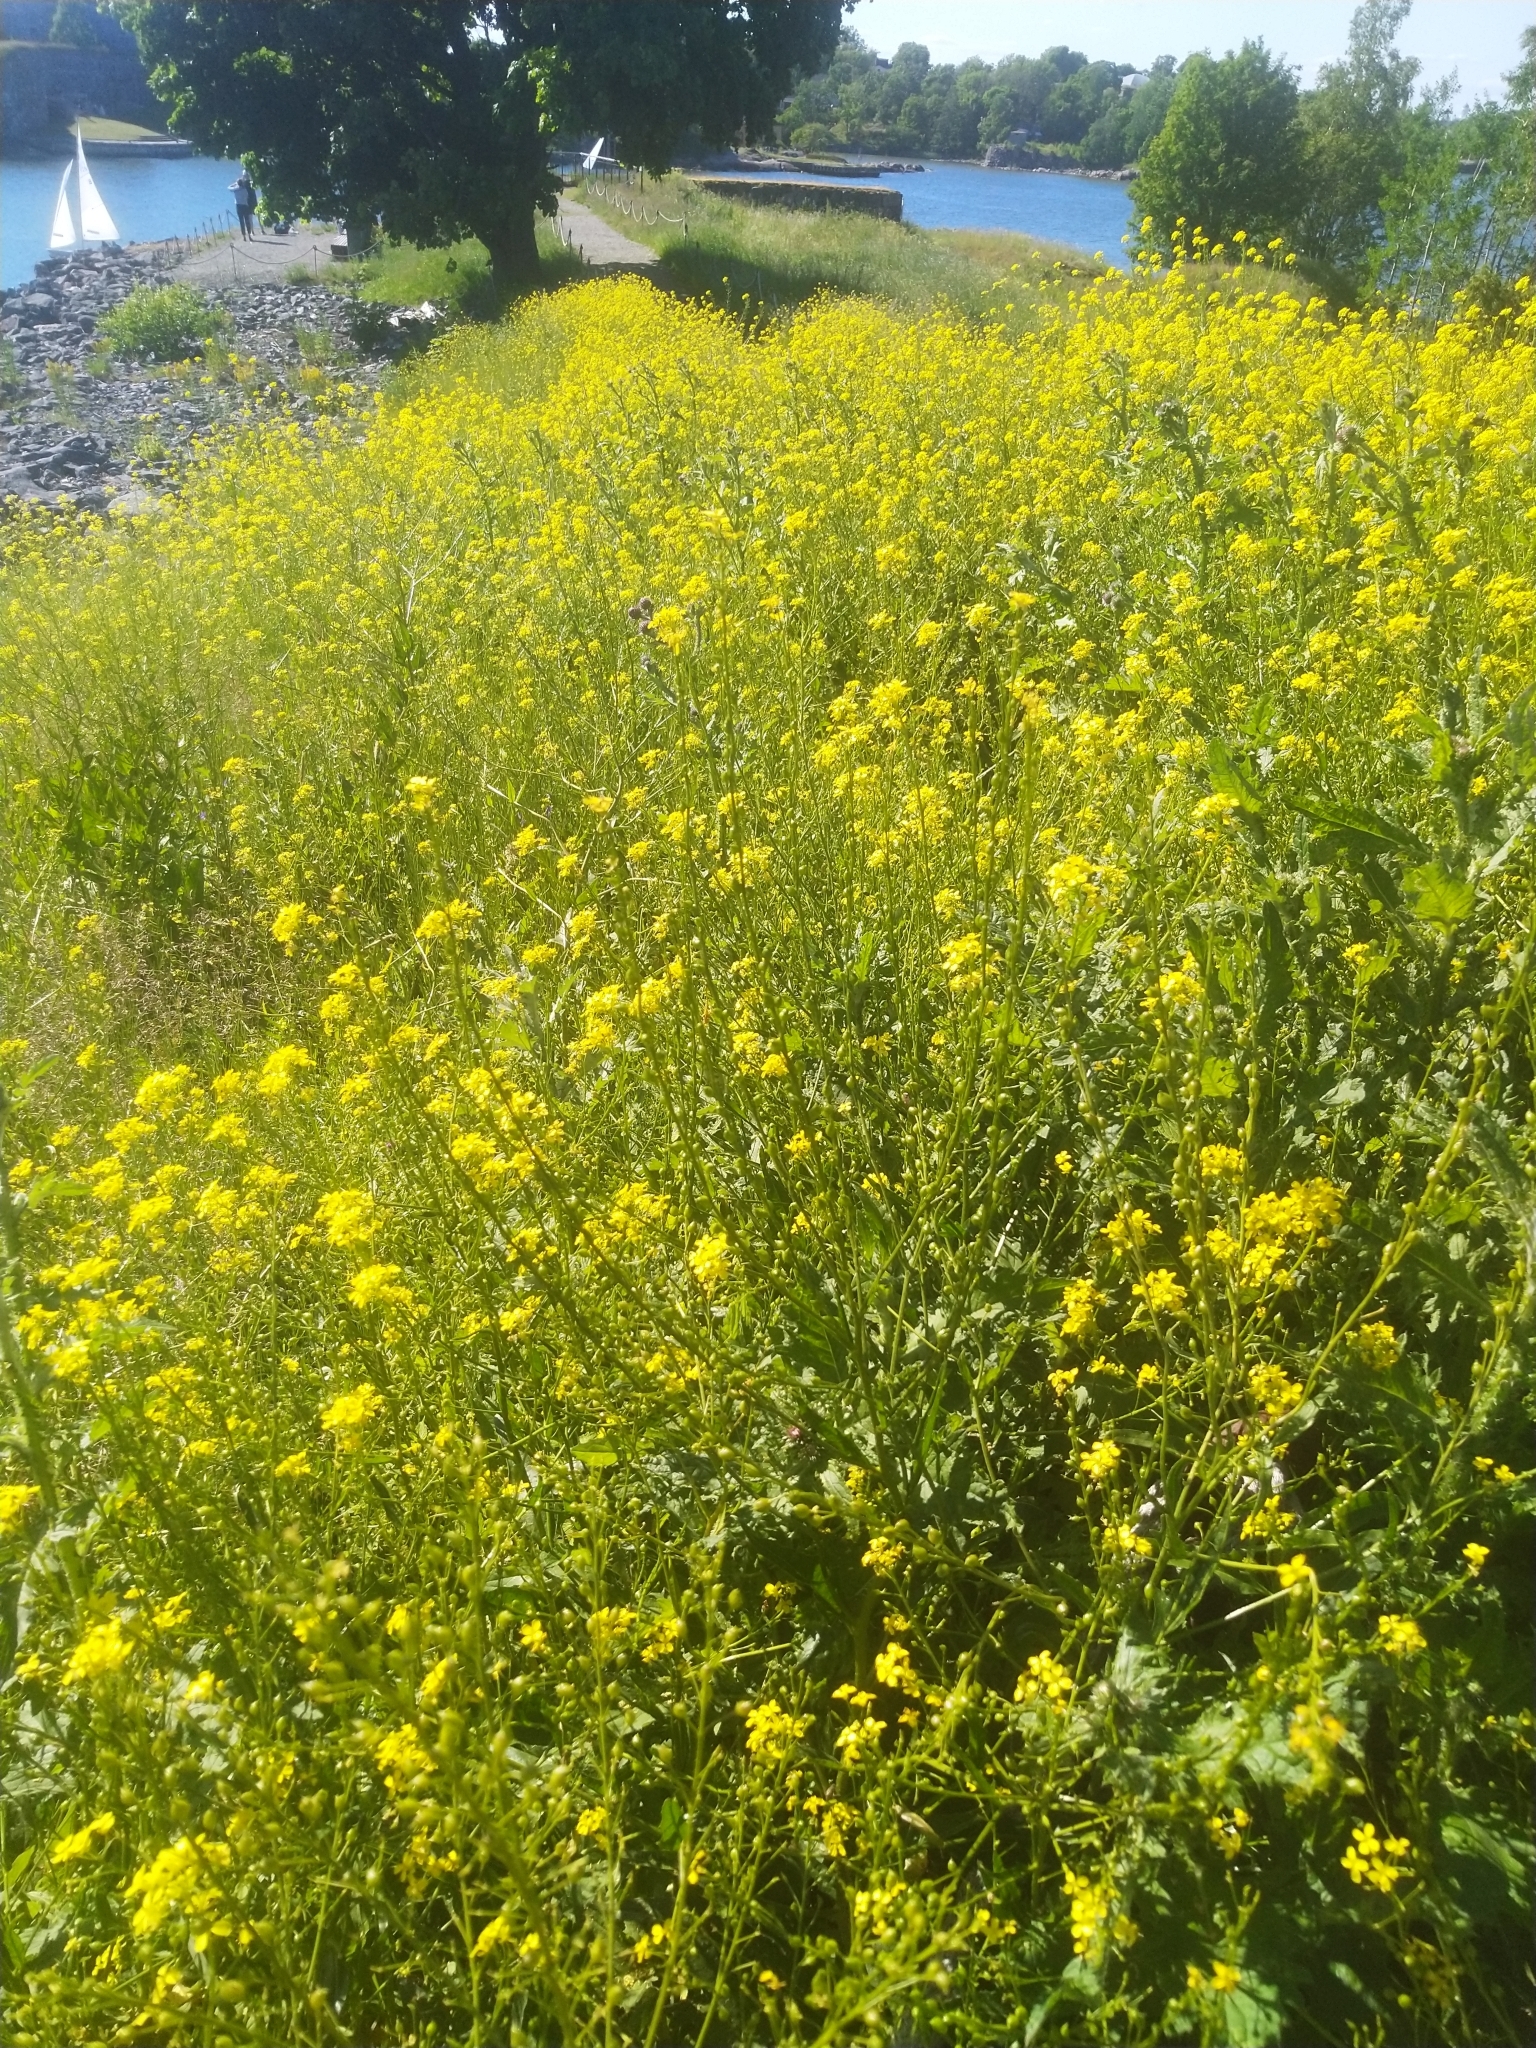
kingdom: Plantae
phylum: Tracheophyta
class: Magnoliopsida
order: Brassicales
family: Brassicaceae
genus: Bunias
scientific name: Bunias orientalis
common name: Warty-cabbage
